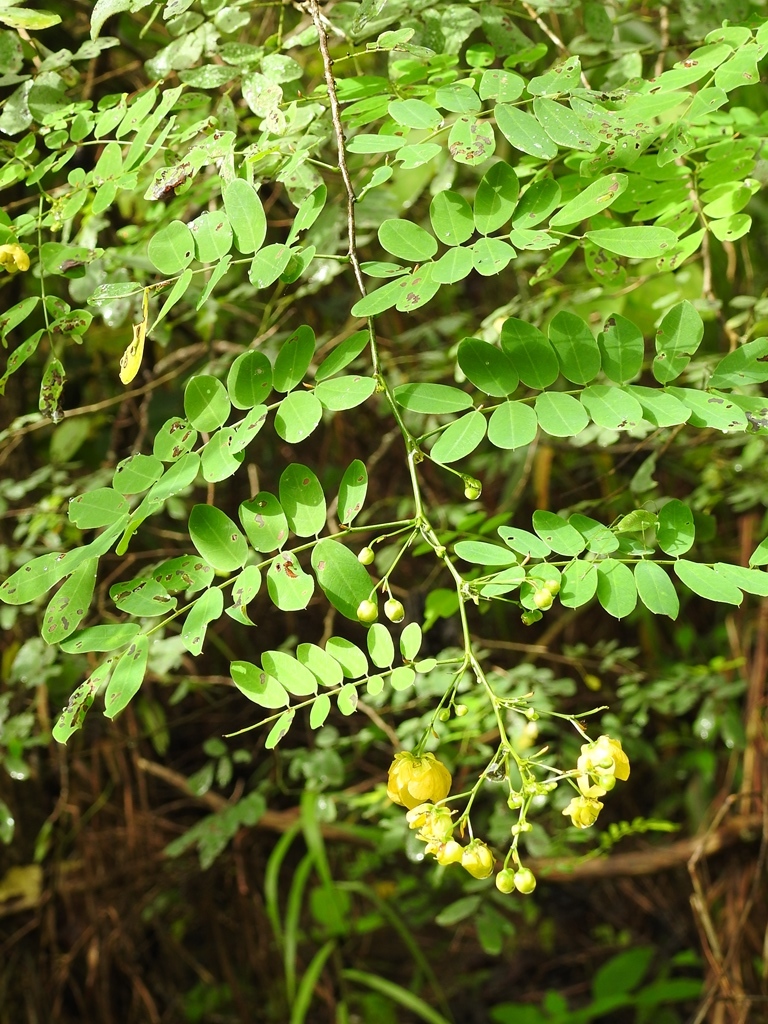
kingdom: Plantae
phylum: Tracheophyta
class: Magnoliopsida
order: Fabales
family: Fabaceae
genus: Senna
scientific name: Senna pallida
